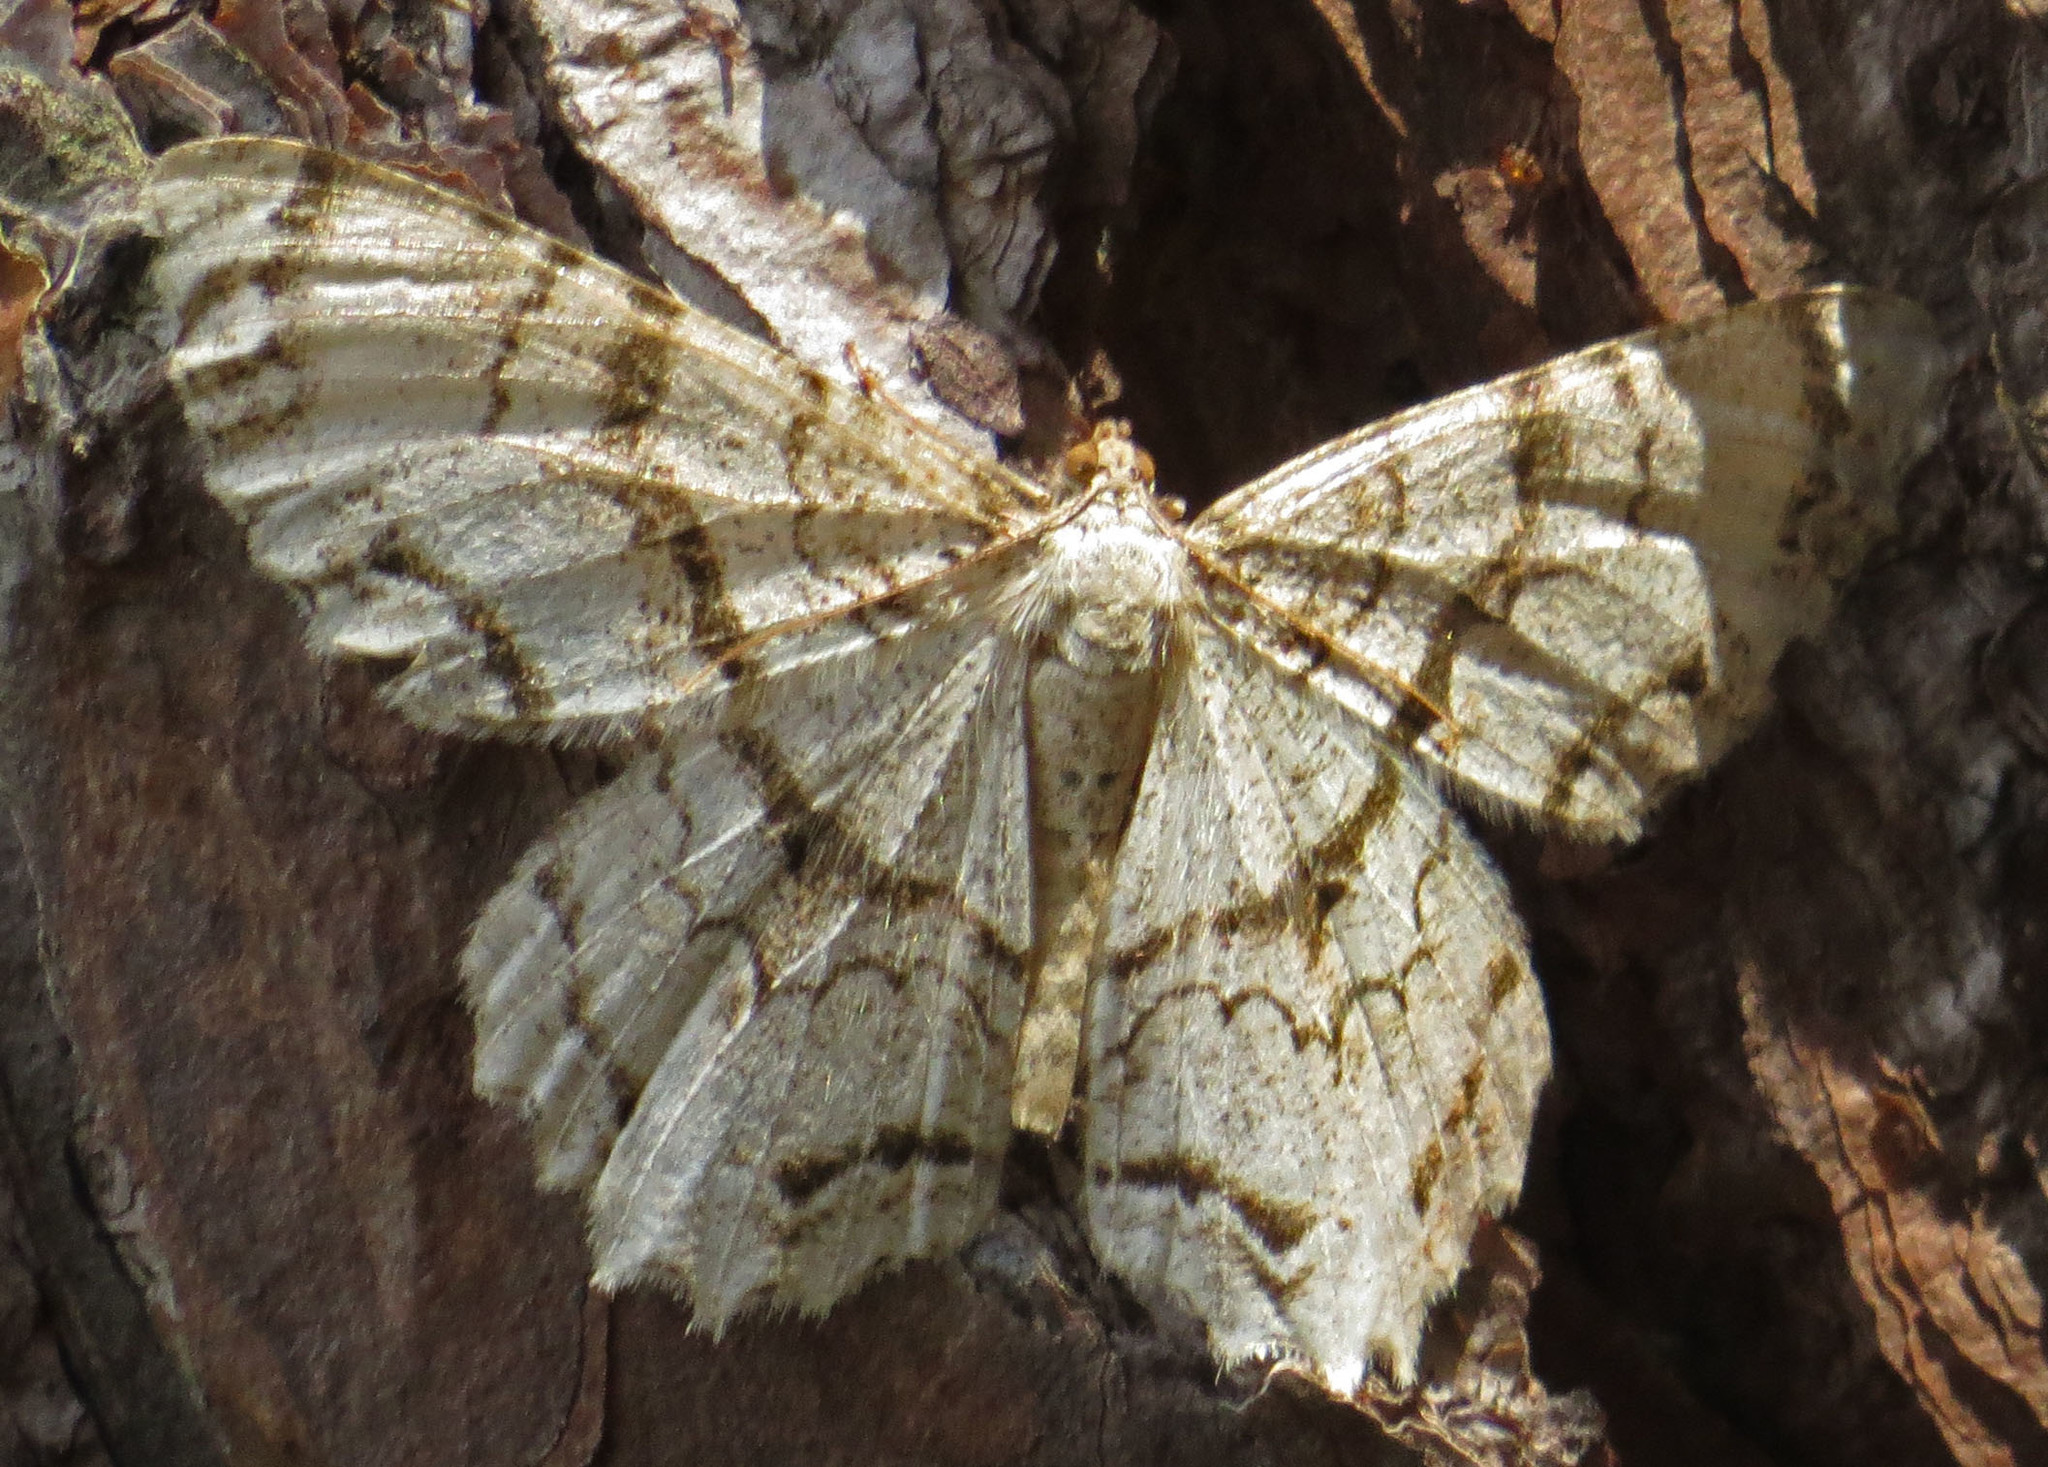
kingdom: Animalia
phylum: Arthropoda
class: Insecta
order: Lepidoptera
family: Geometridae
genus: Epimecis
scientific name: Epimecis hortaria
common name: Tulip-tree beauty
